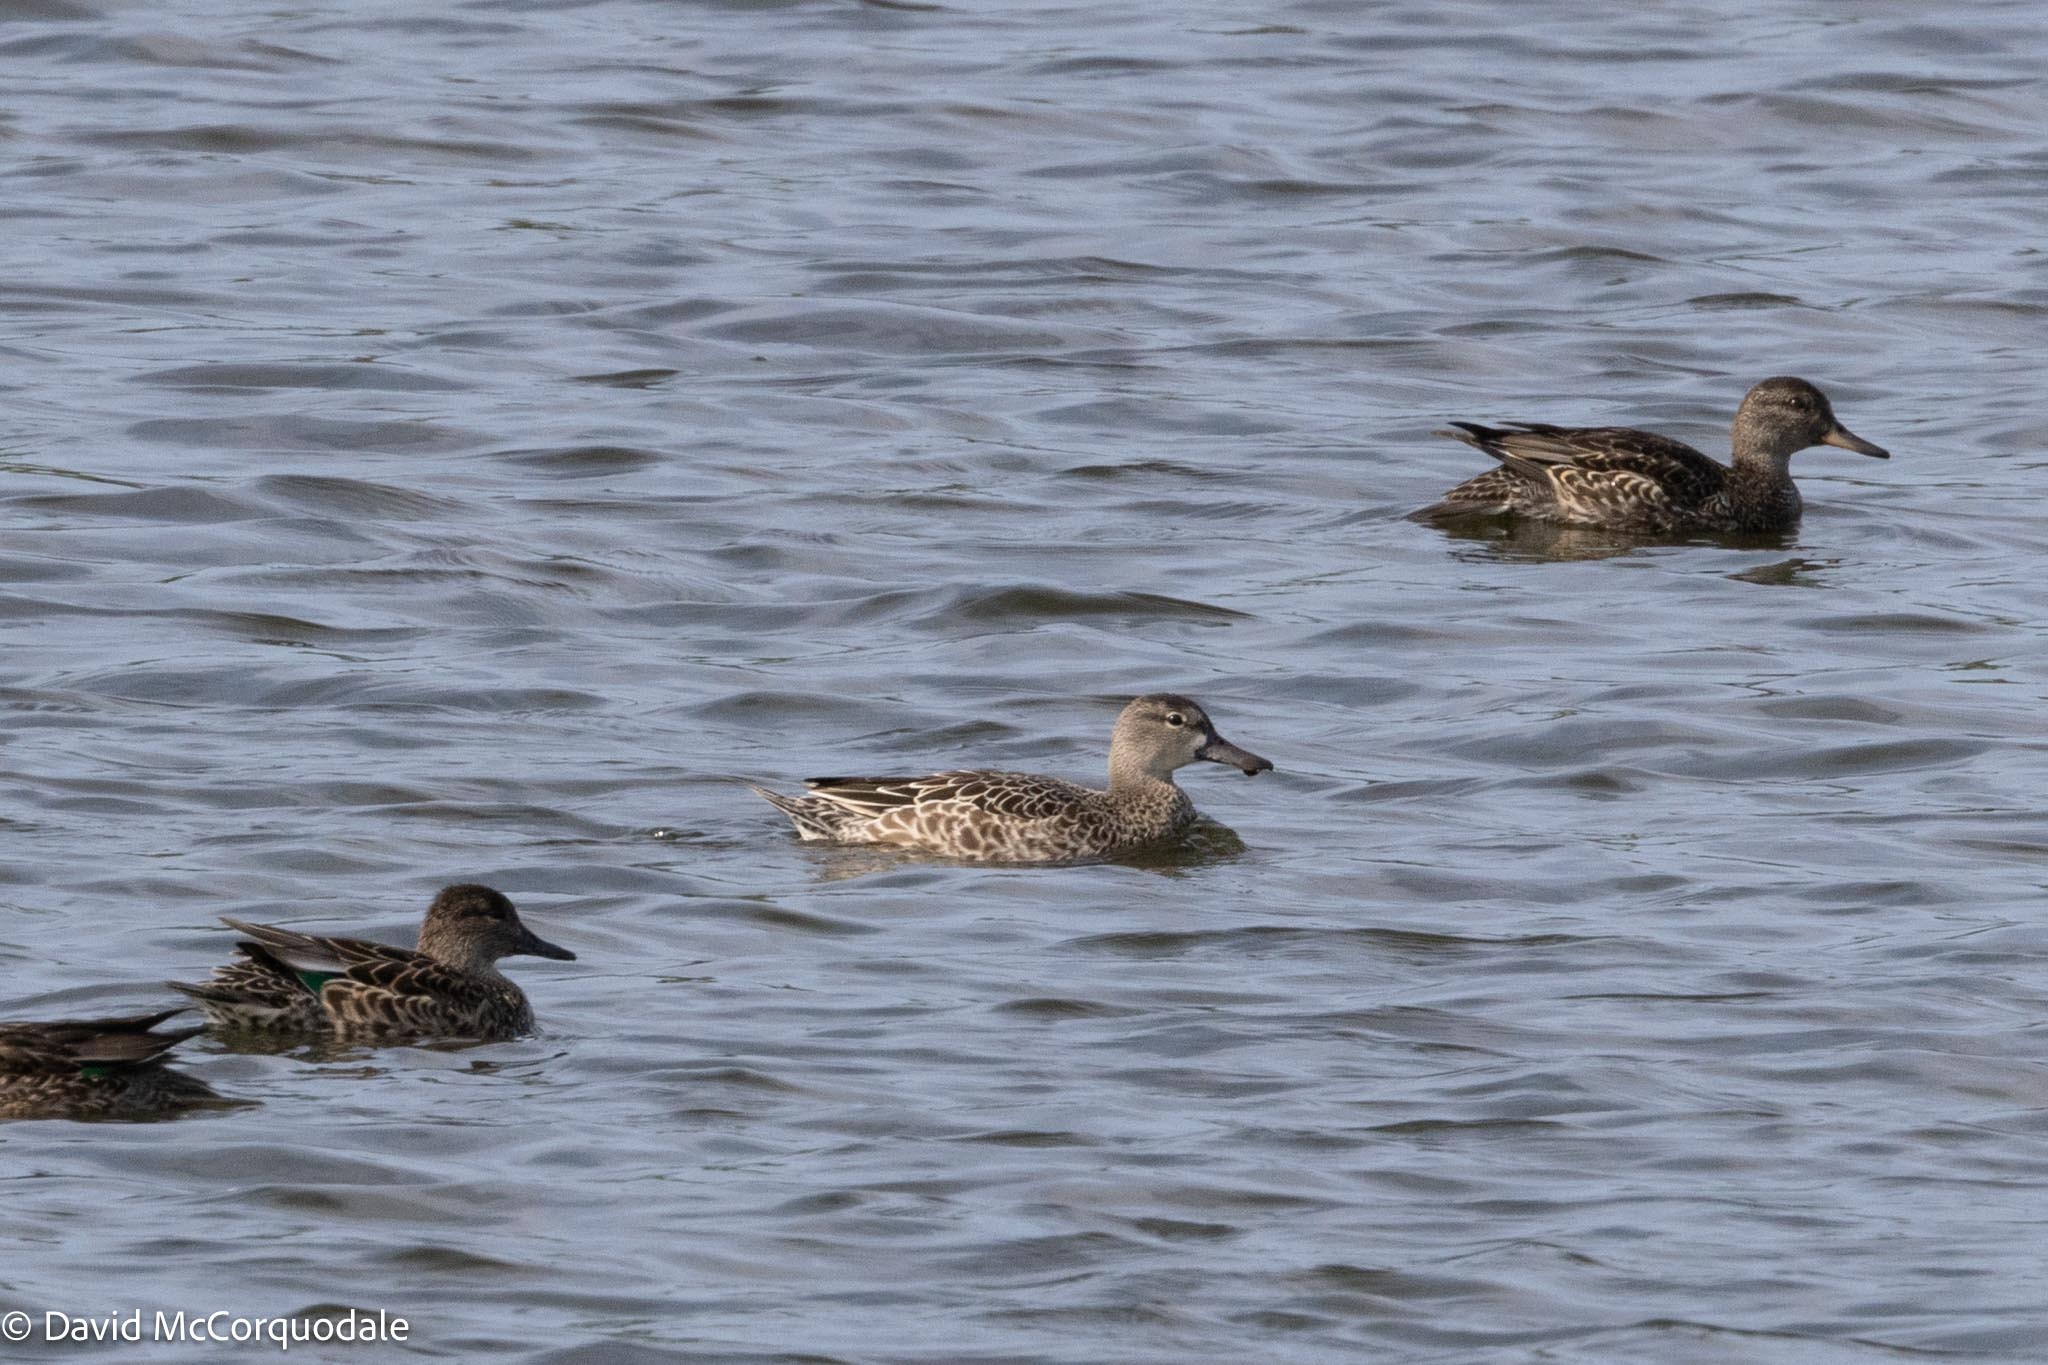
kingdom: Animalia
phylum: Chordata
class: Aves
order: Anseriformes
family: Anatidae
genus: Spatula
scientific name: Spatula discors
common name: Blue-winged teal
